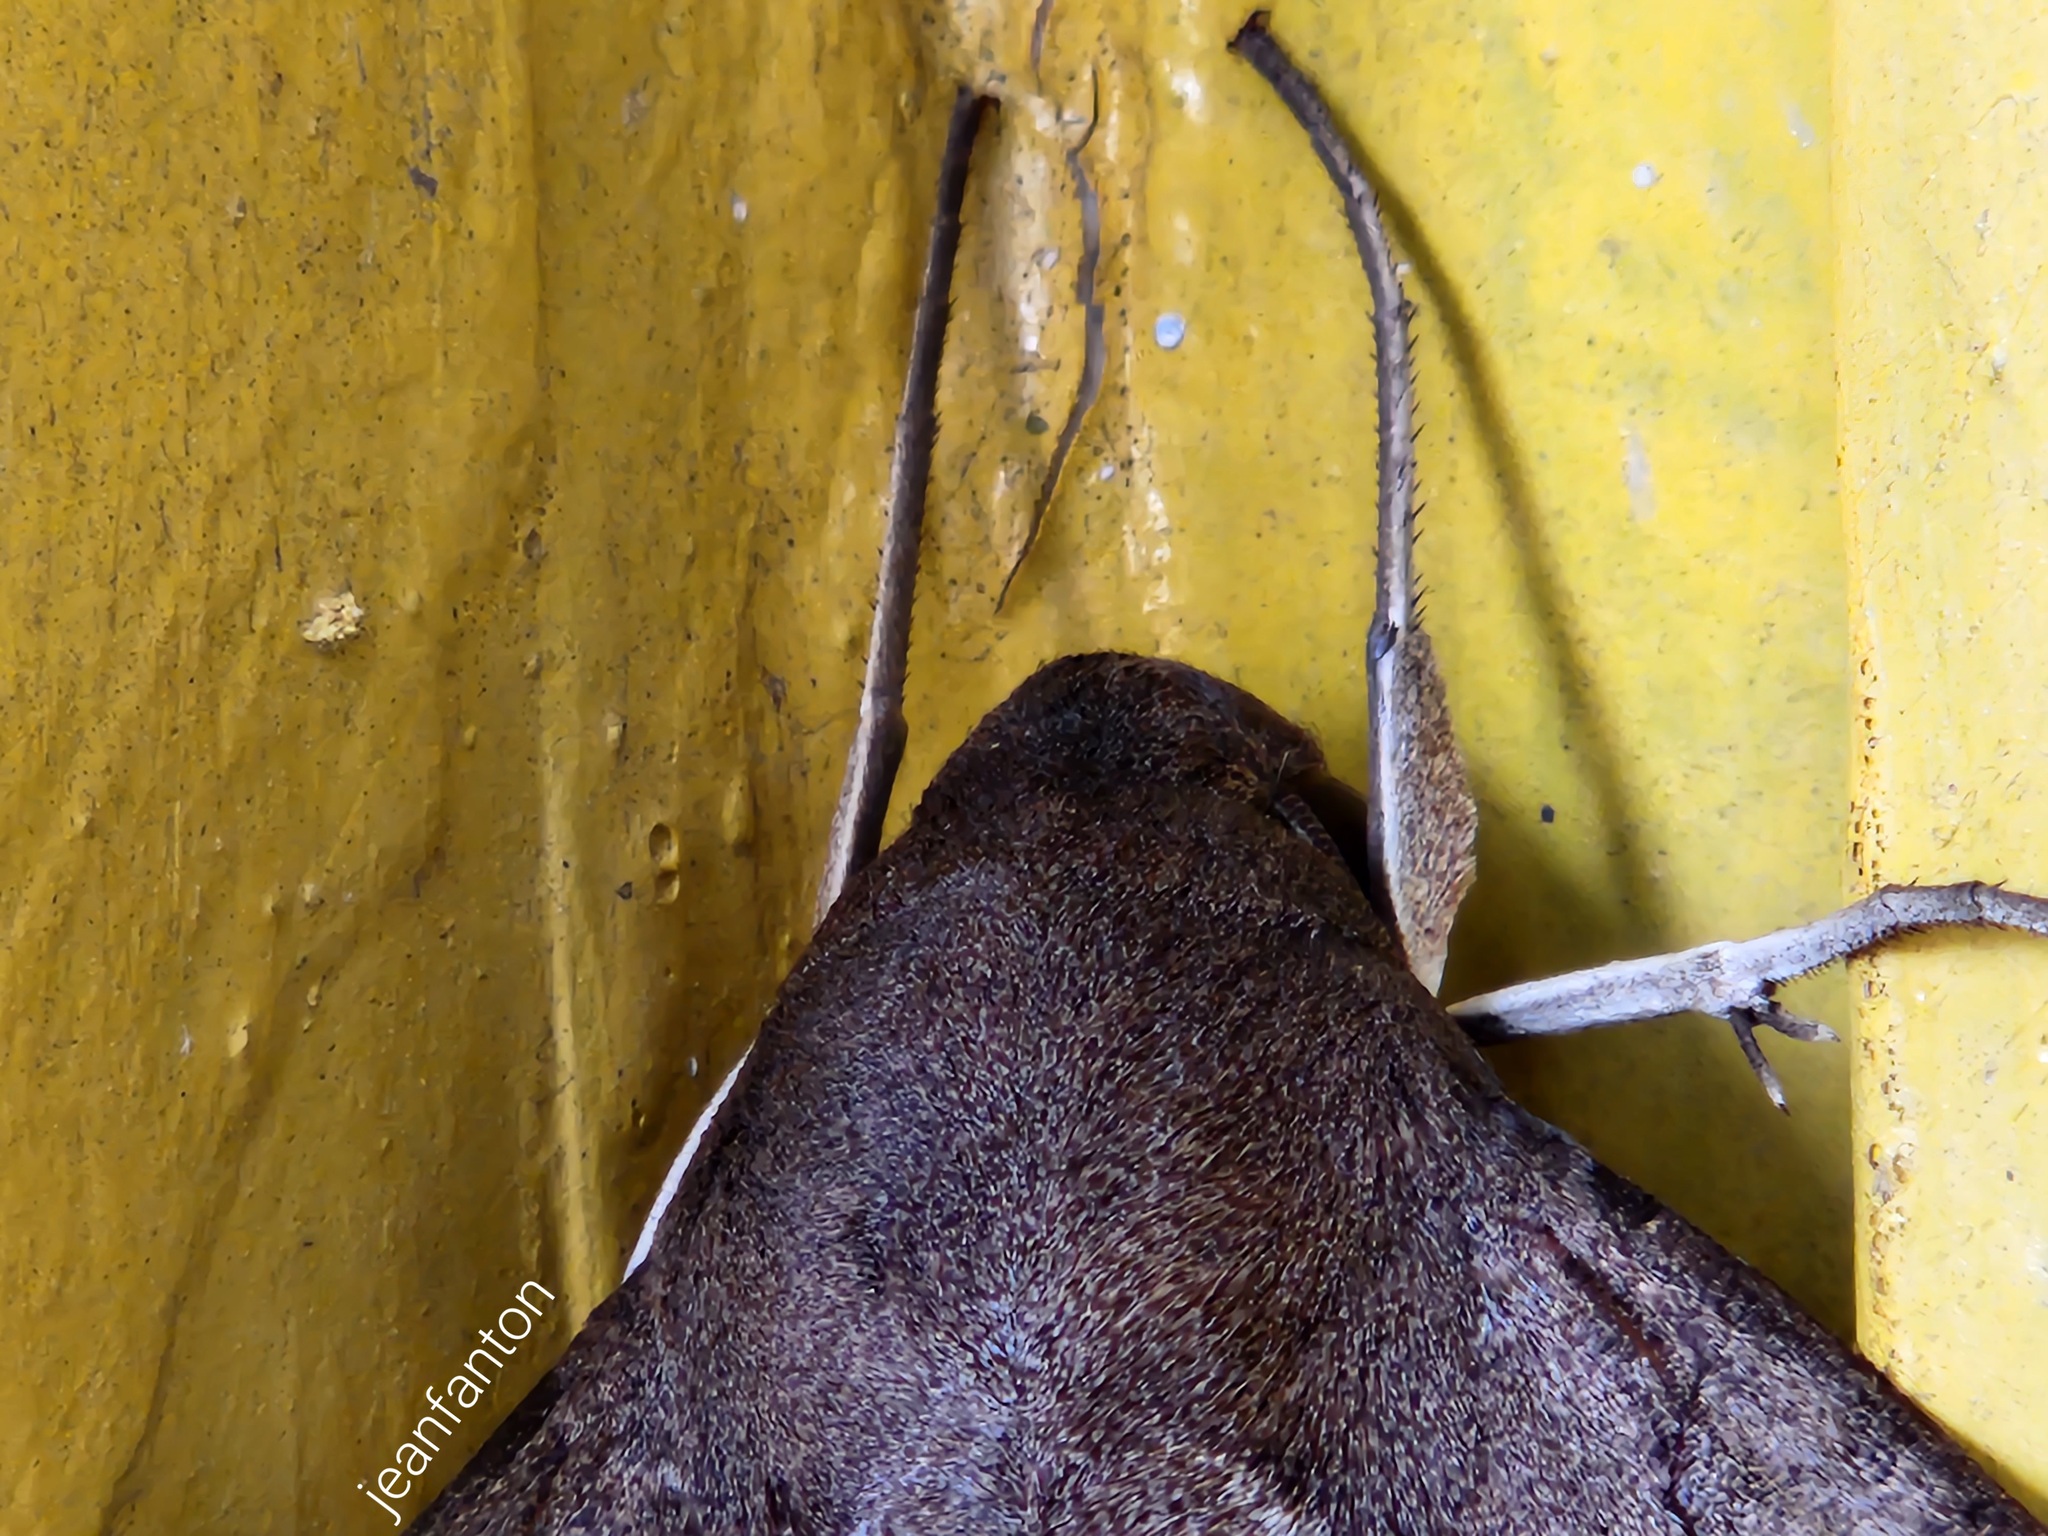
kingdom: Animalia
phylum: Arthropoda
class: Insecta
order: Lepidoptera
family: Sphingidae
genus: Pachylioides
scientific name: Pachylioides resumens
